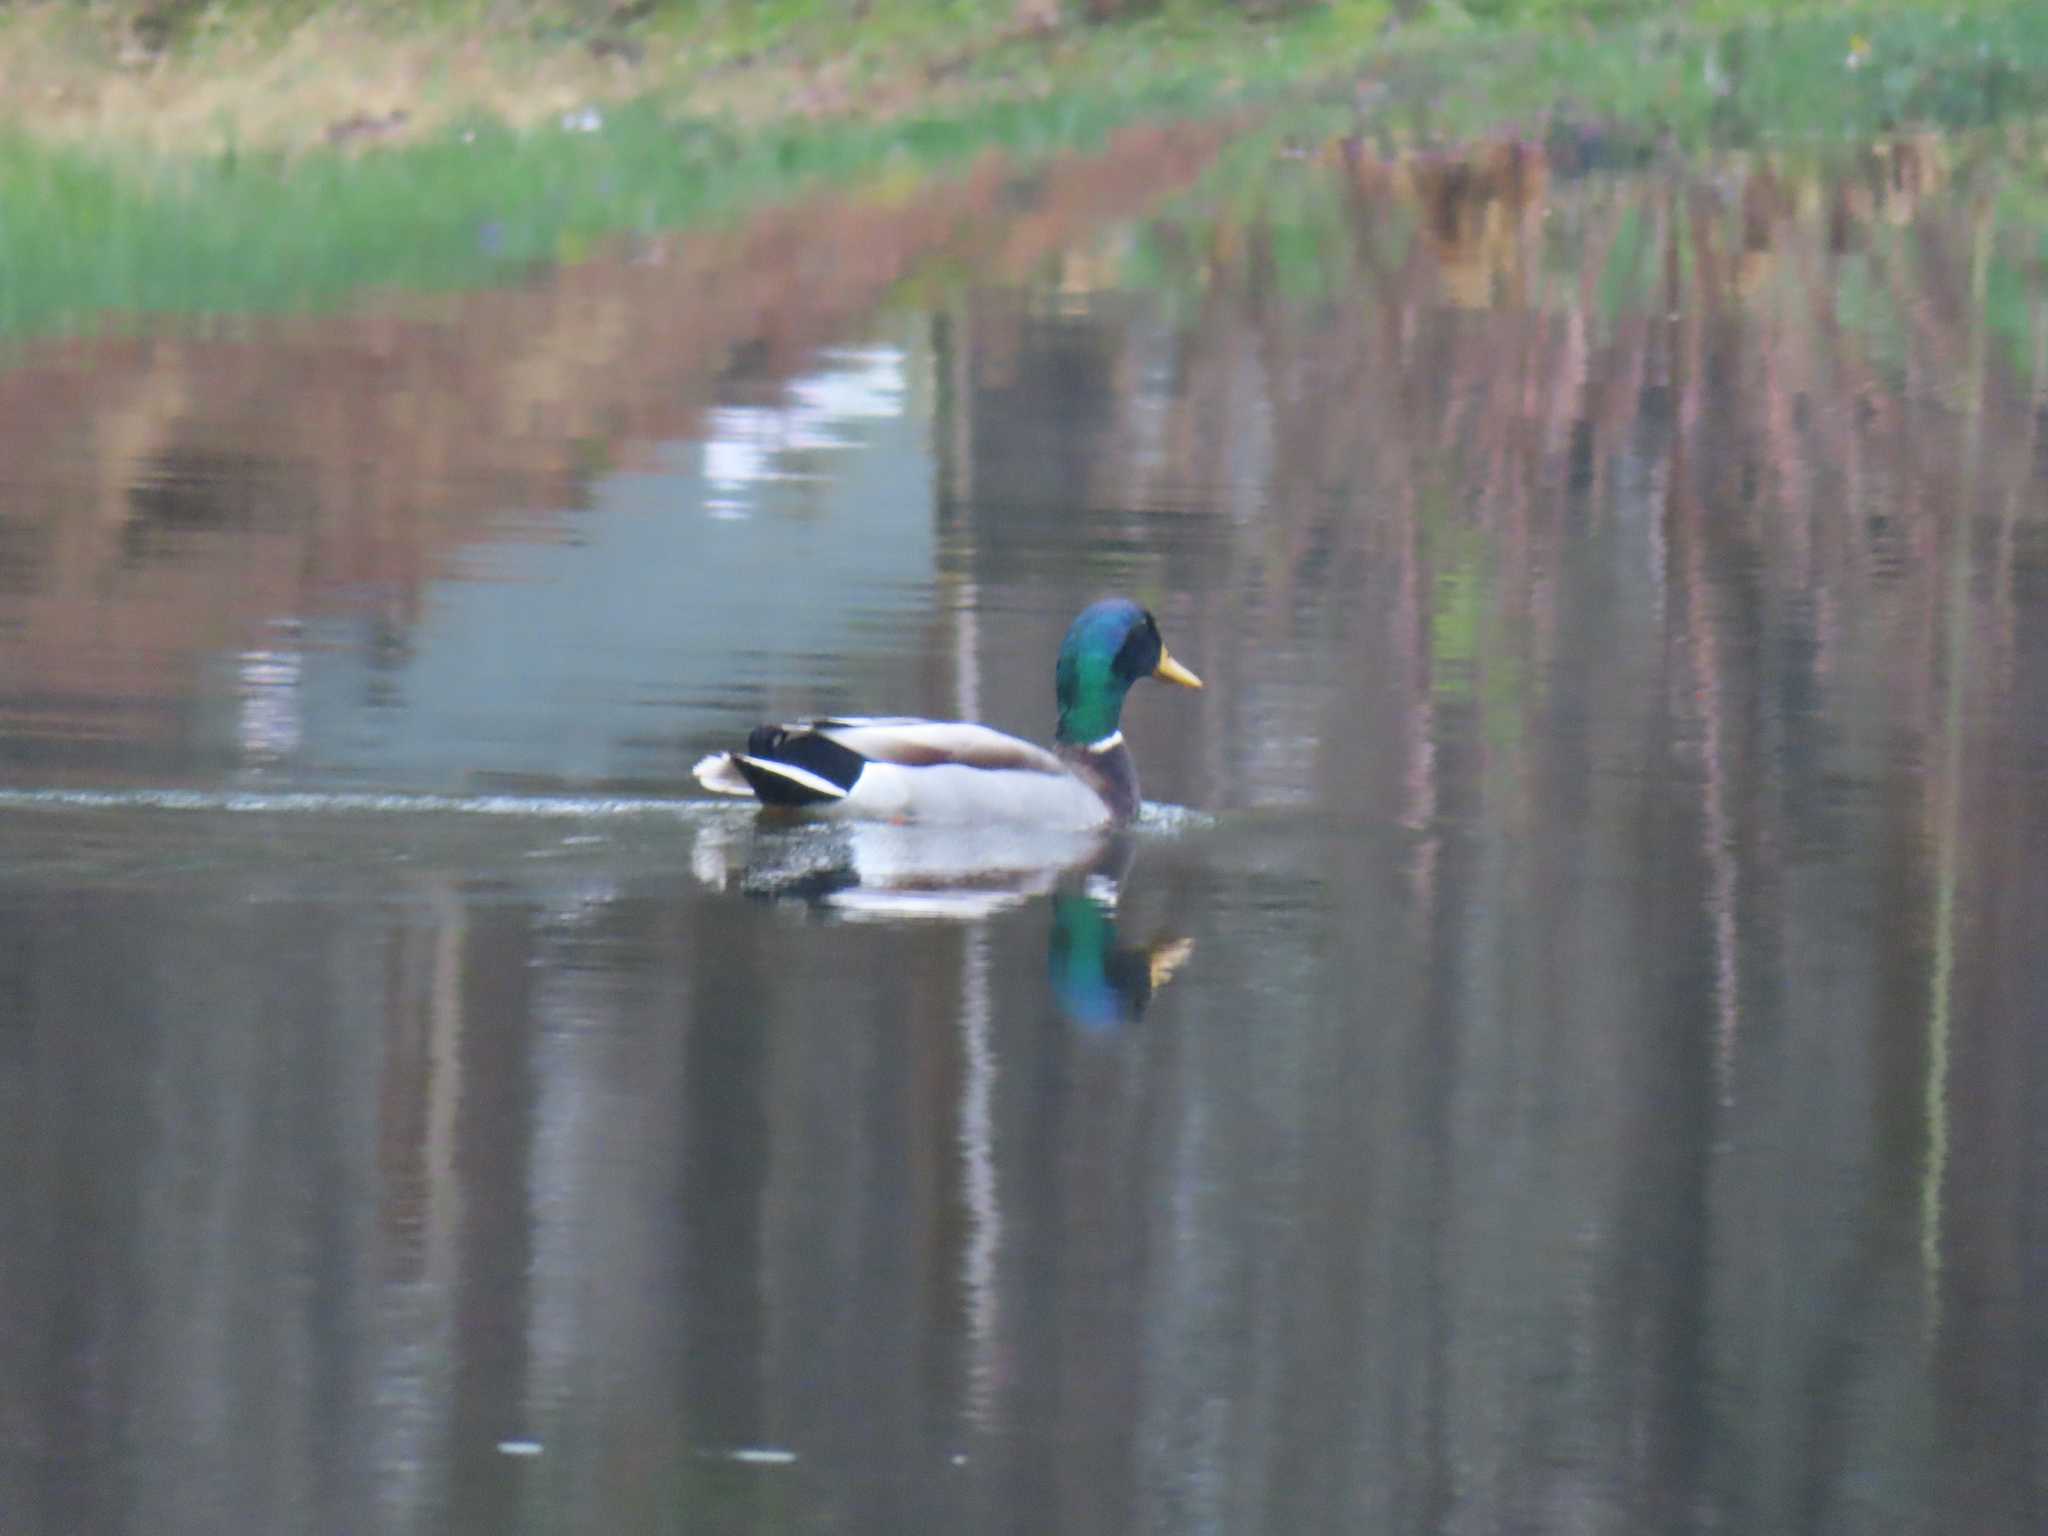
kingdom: Animalia
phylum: Chordata
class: Aves
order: Anseriformes
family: Anatidae
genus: Anas
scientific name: Anas platyrhynchos
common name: Mallard
